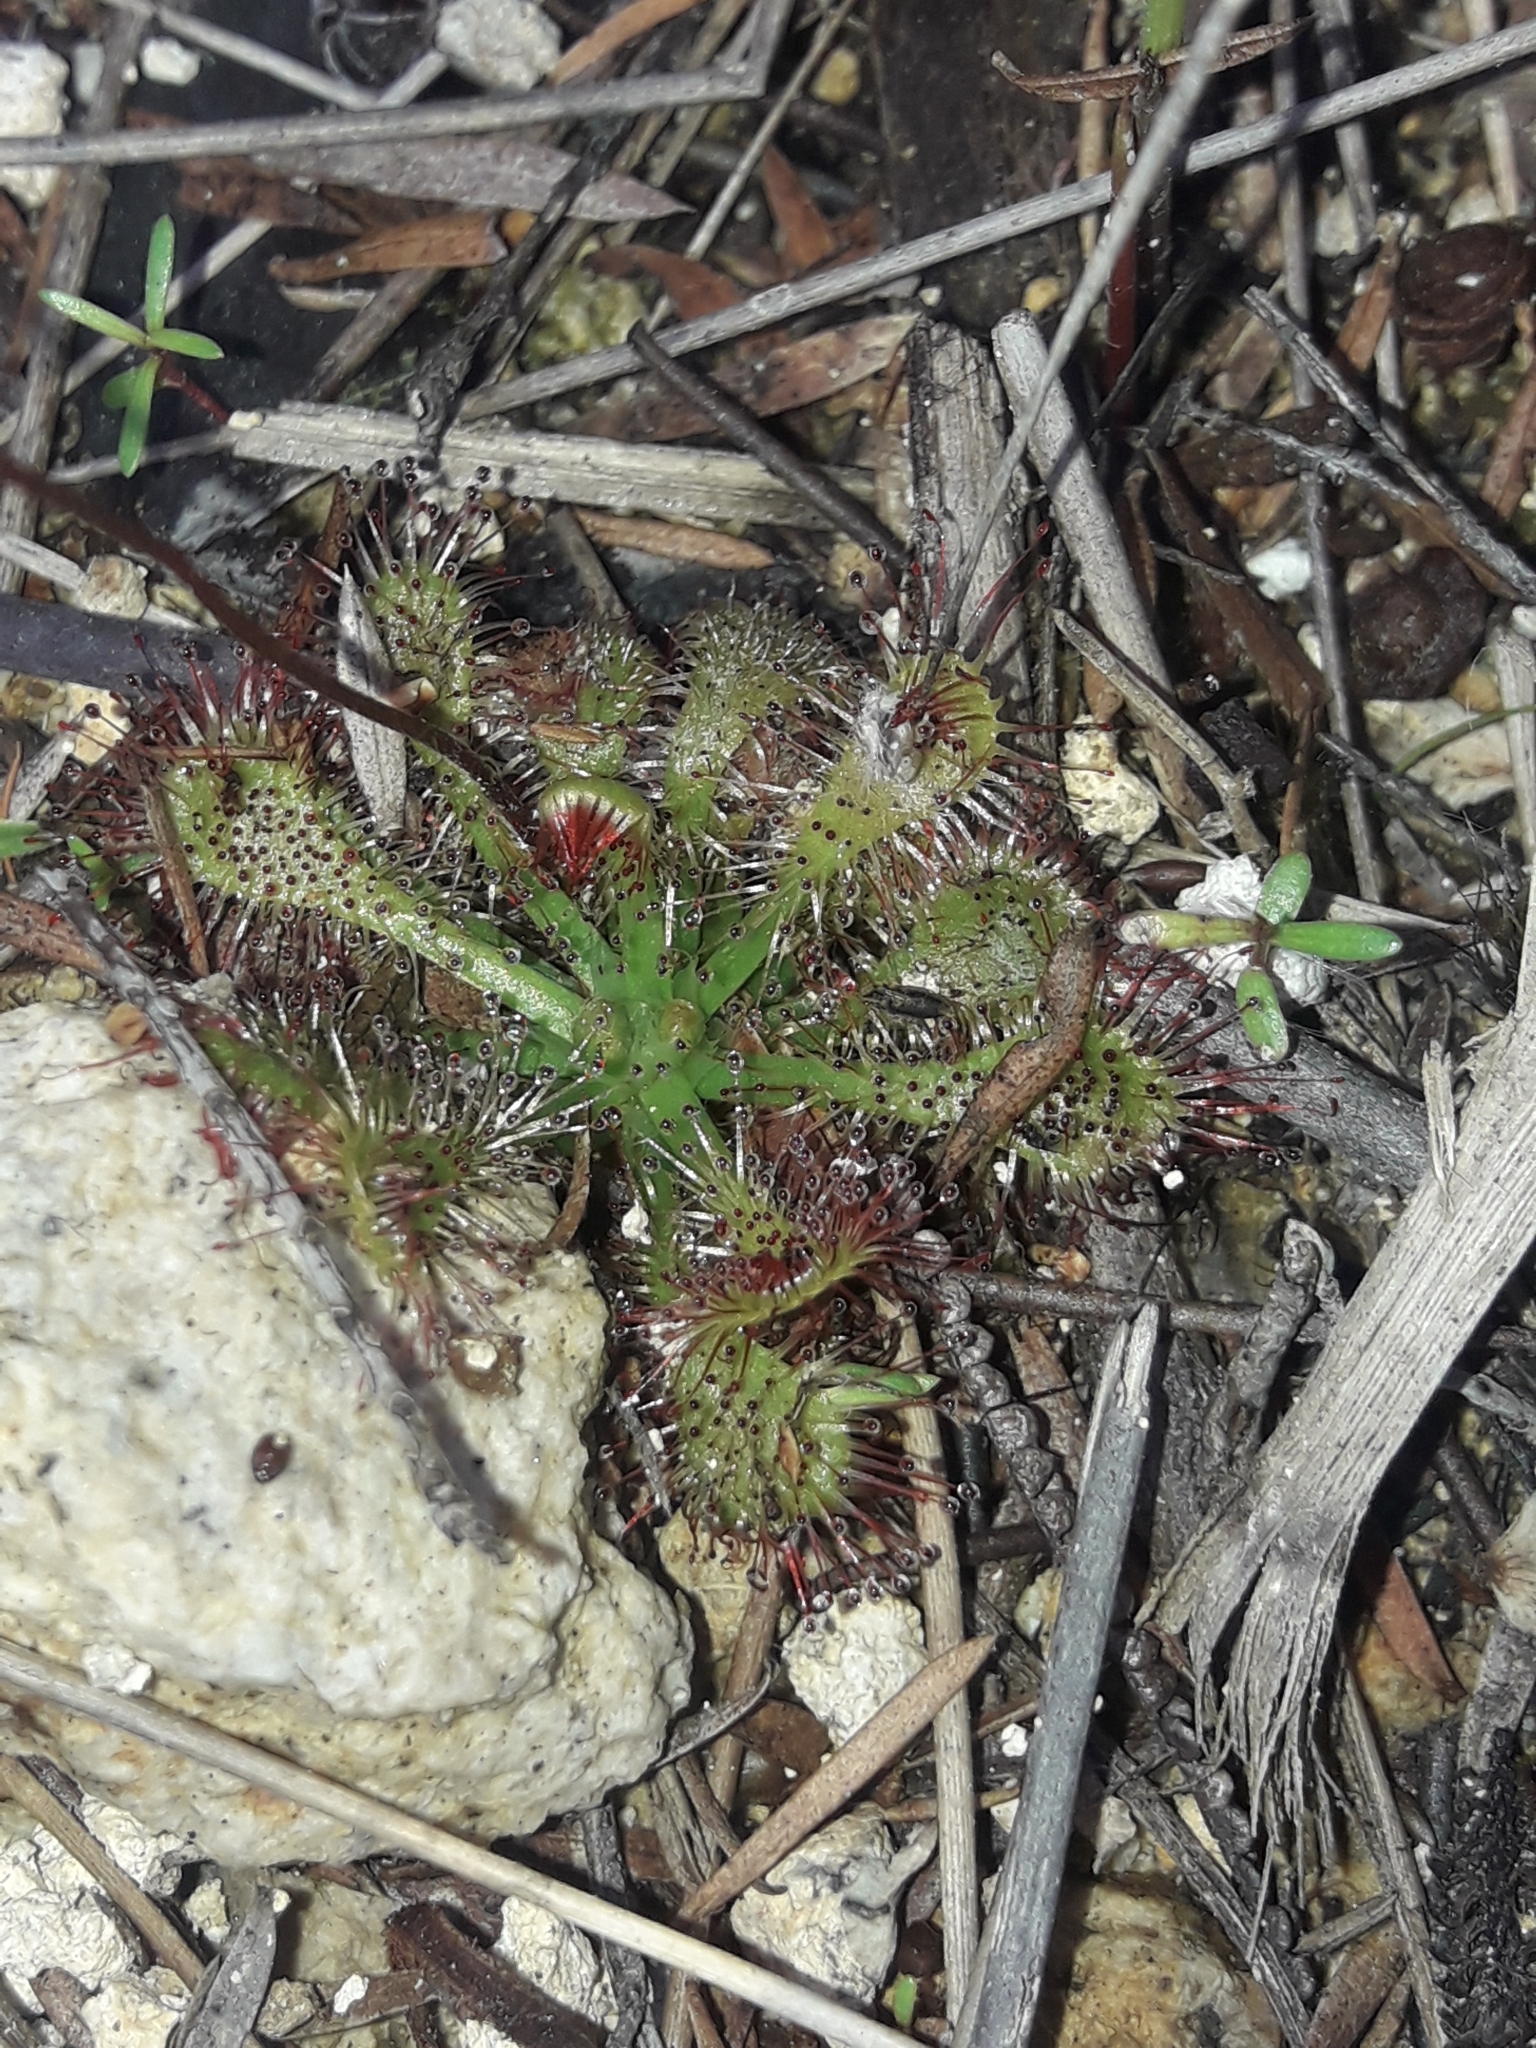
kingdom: Plantae
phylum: Tracheophyta
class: Magnoliopsida
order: Caryophyllales
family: Droseraceae
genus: Drosera
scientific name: Drosera spatulata
